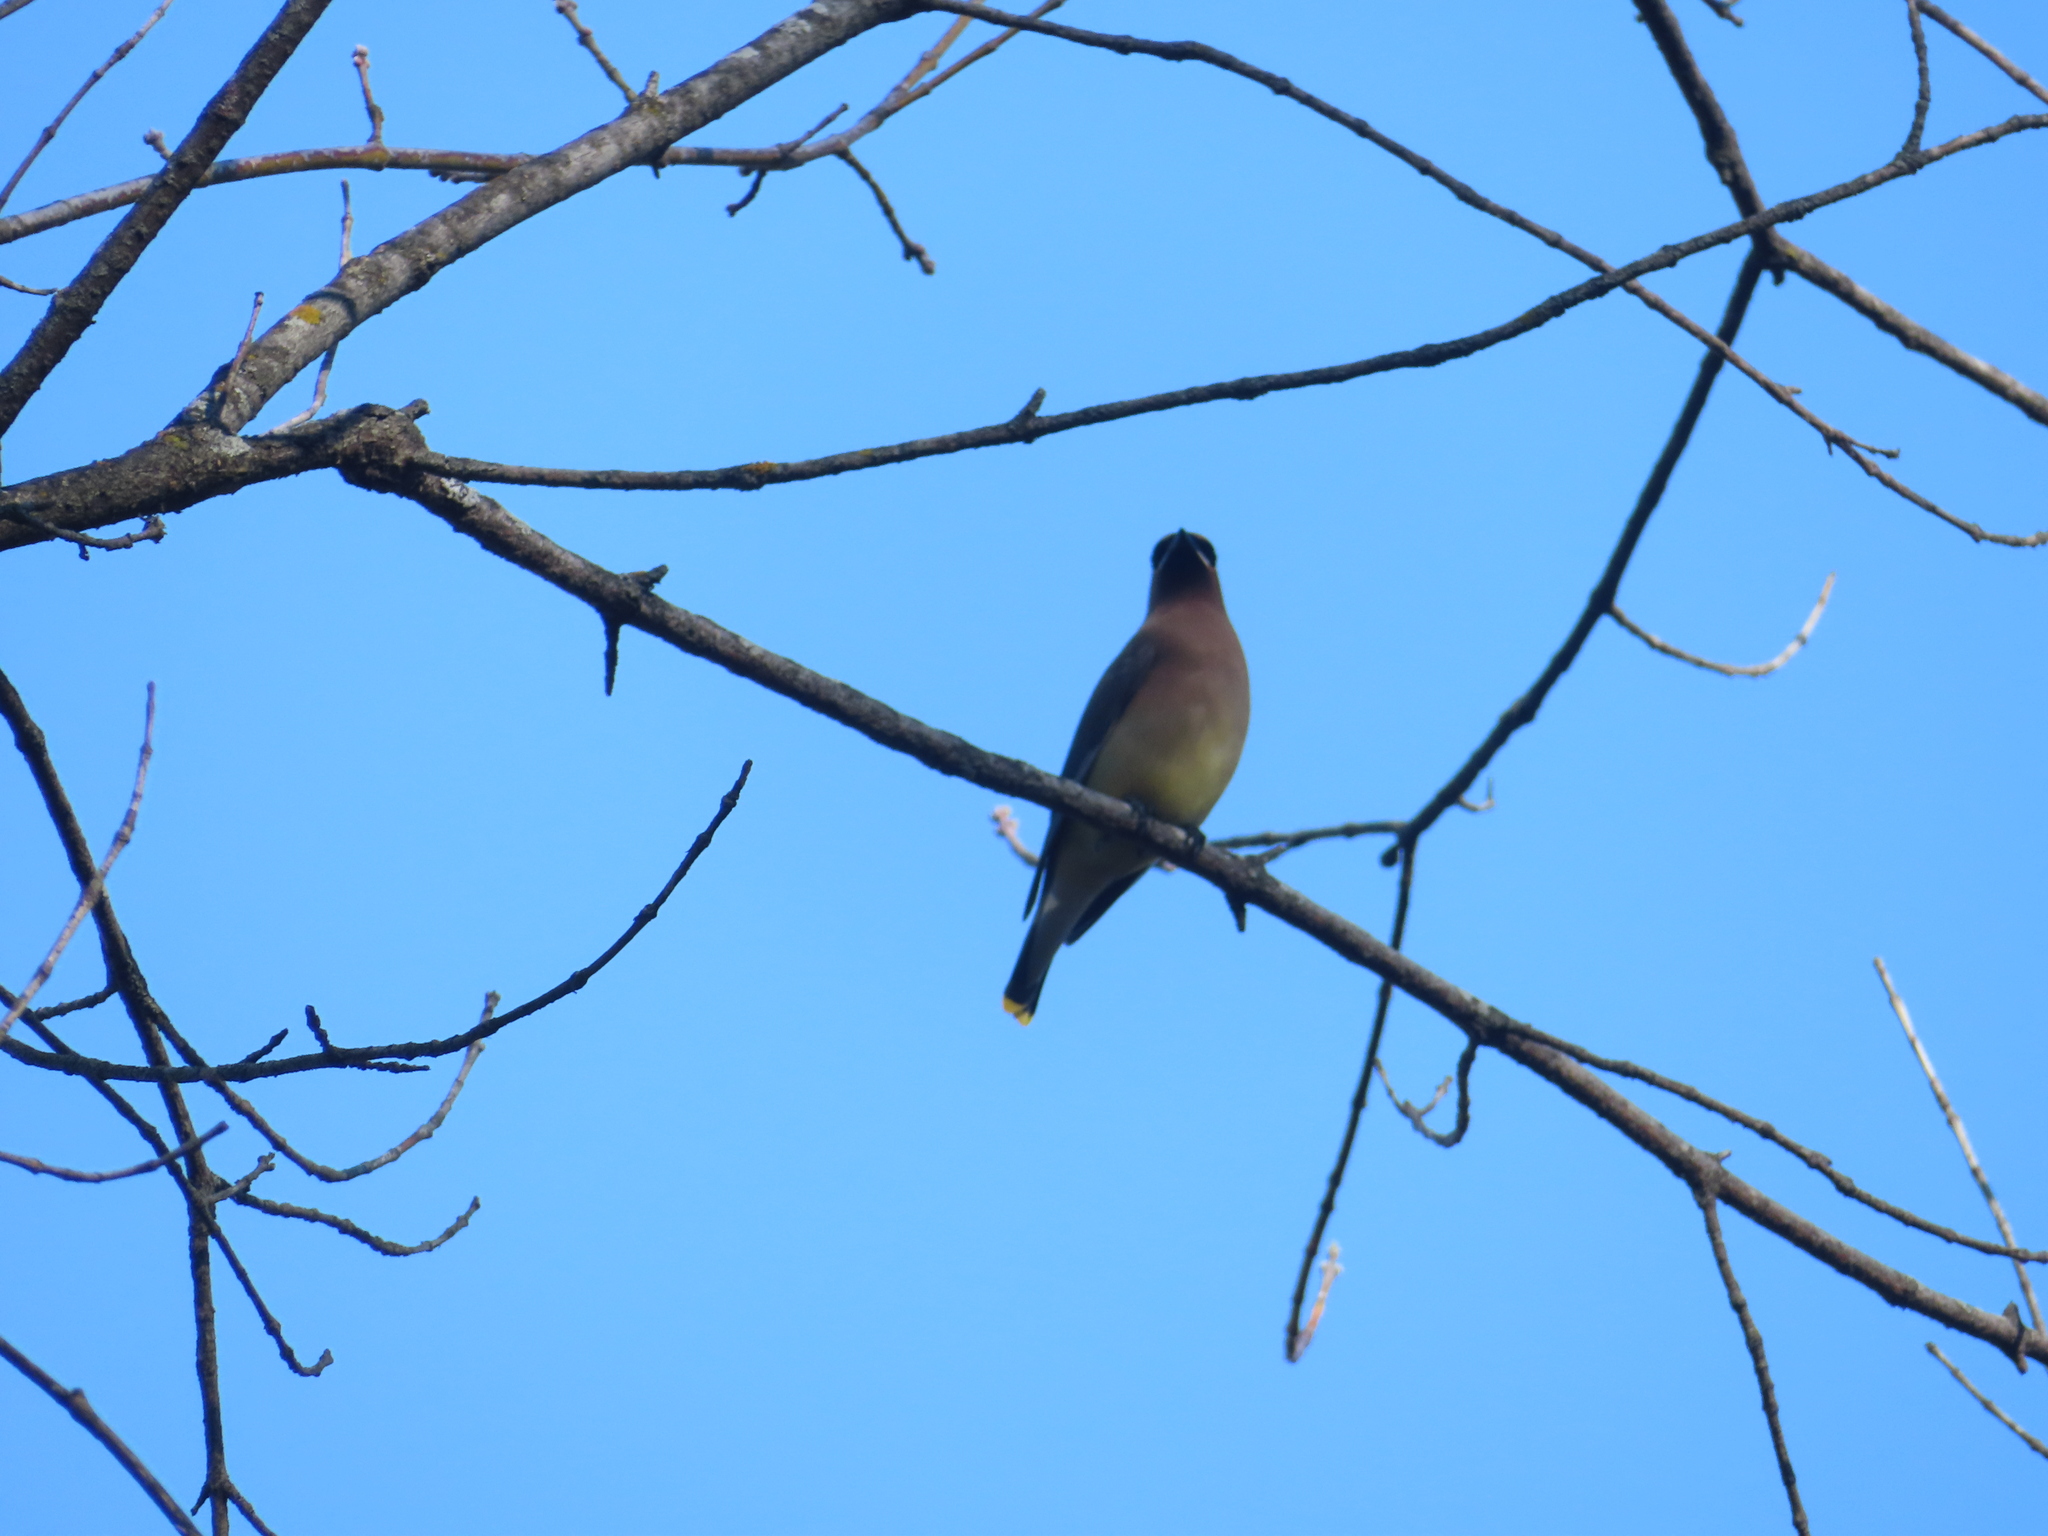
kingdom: Animalia
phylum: Chordata
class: Aves
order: Passeriformes
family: Bombycillidae
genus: Bombycilla
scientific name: Bombycilla cedrorum
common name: Cedar waxwing
